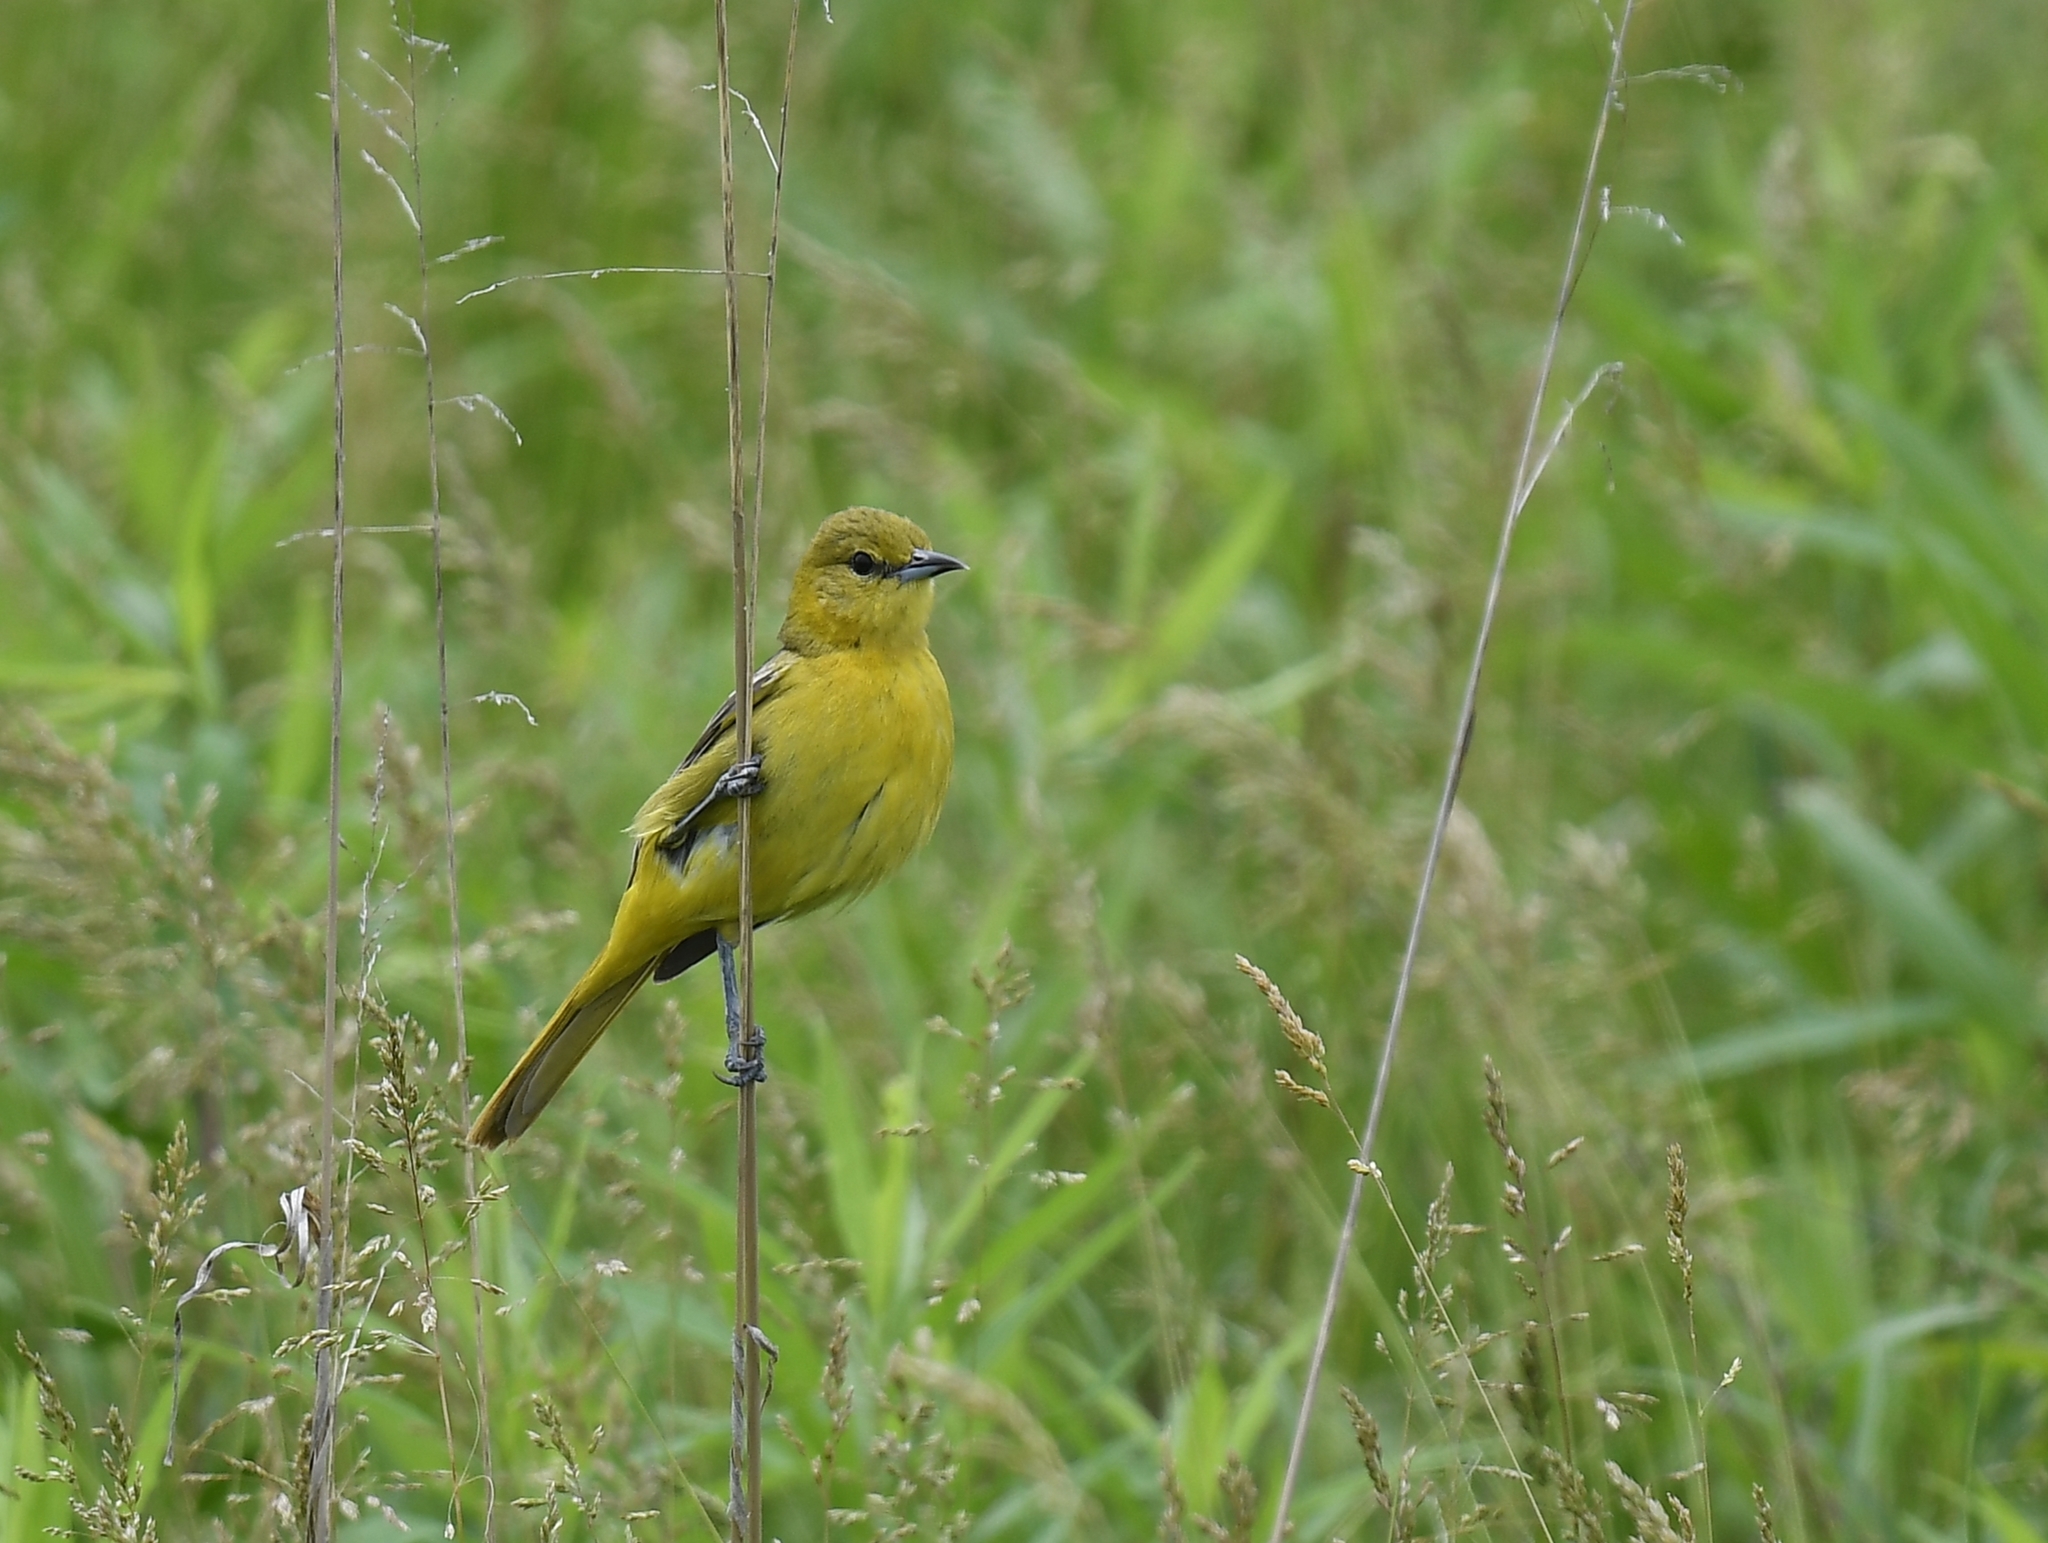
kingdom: Animalia
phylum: Chordata
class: Aves
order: Passeriformes
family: Icteridae
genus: Icterus
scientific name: Icterus spurius
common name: Orchard oriole
